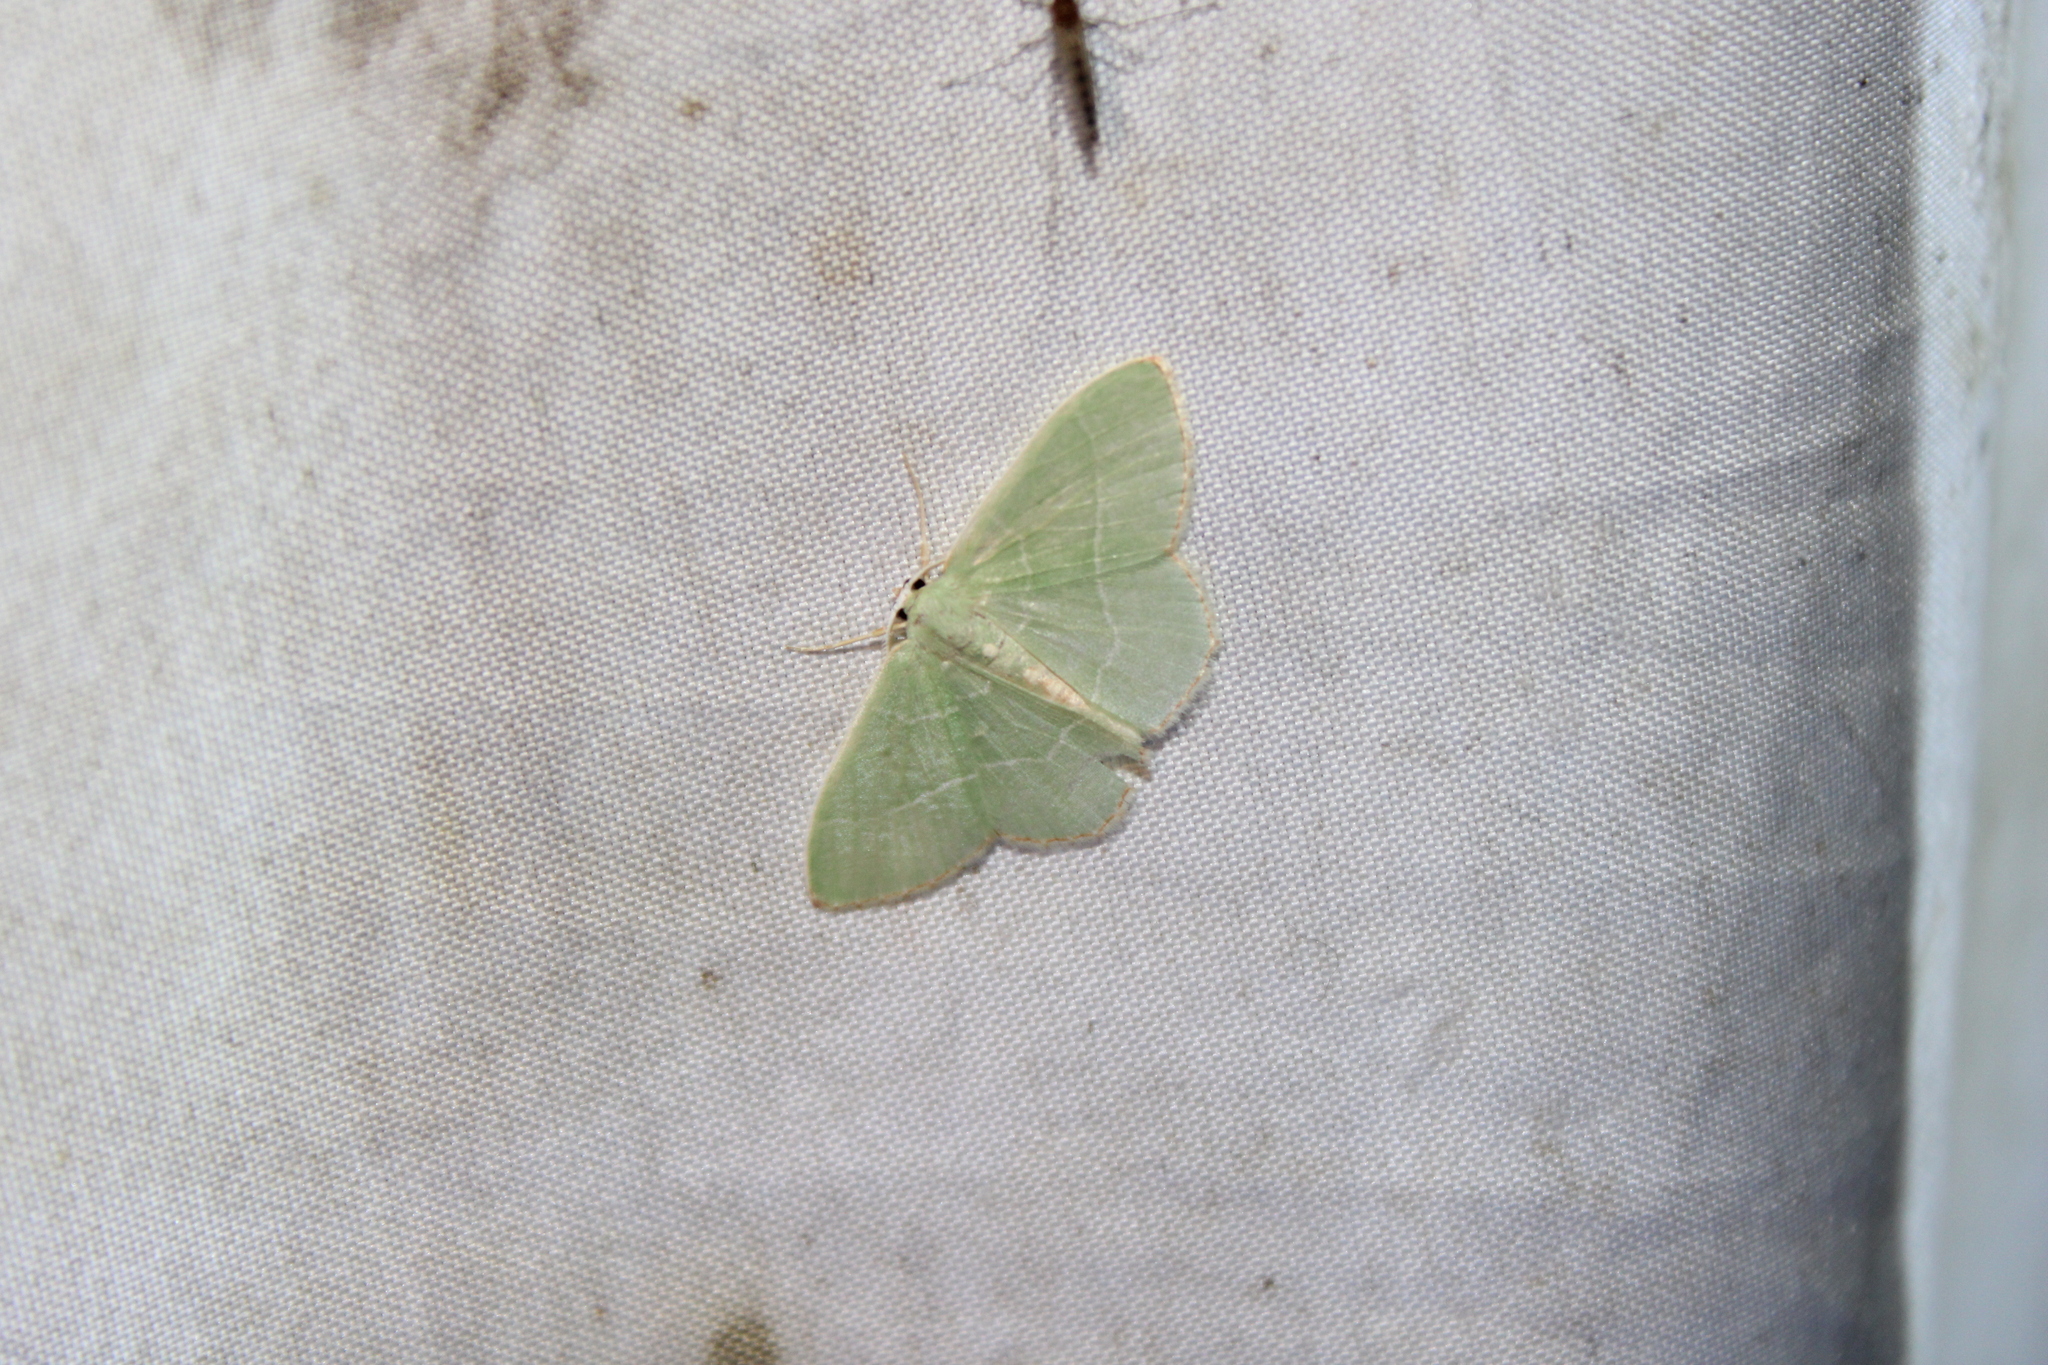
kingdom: Animalia
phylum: Arthropoda
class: Insecta
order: Lepidoptera
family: Geometridae
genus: Nemoria
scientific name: Nemoria bistriaria
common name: Red-fringed emerald
